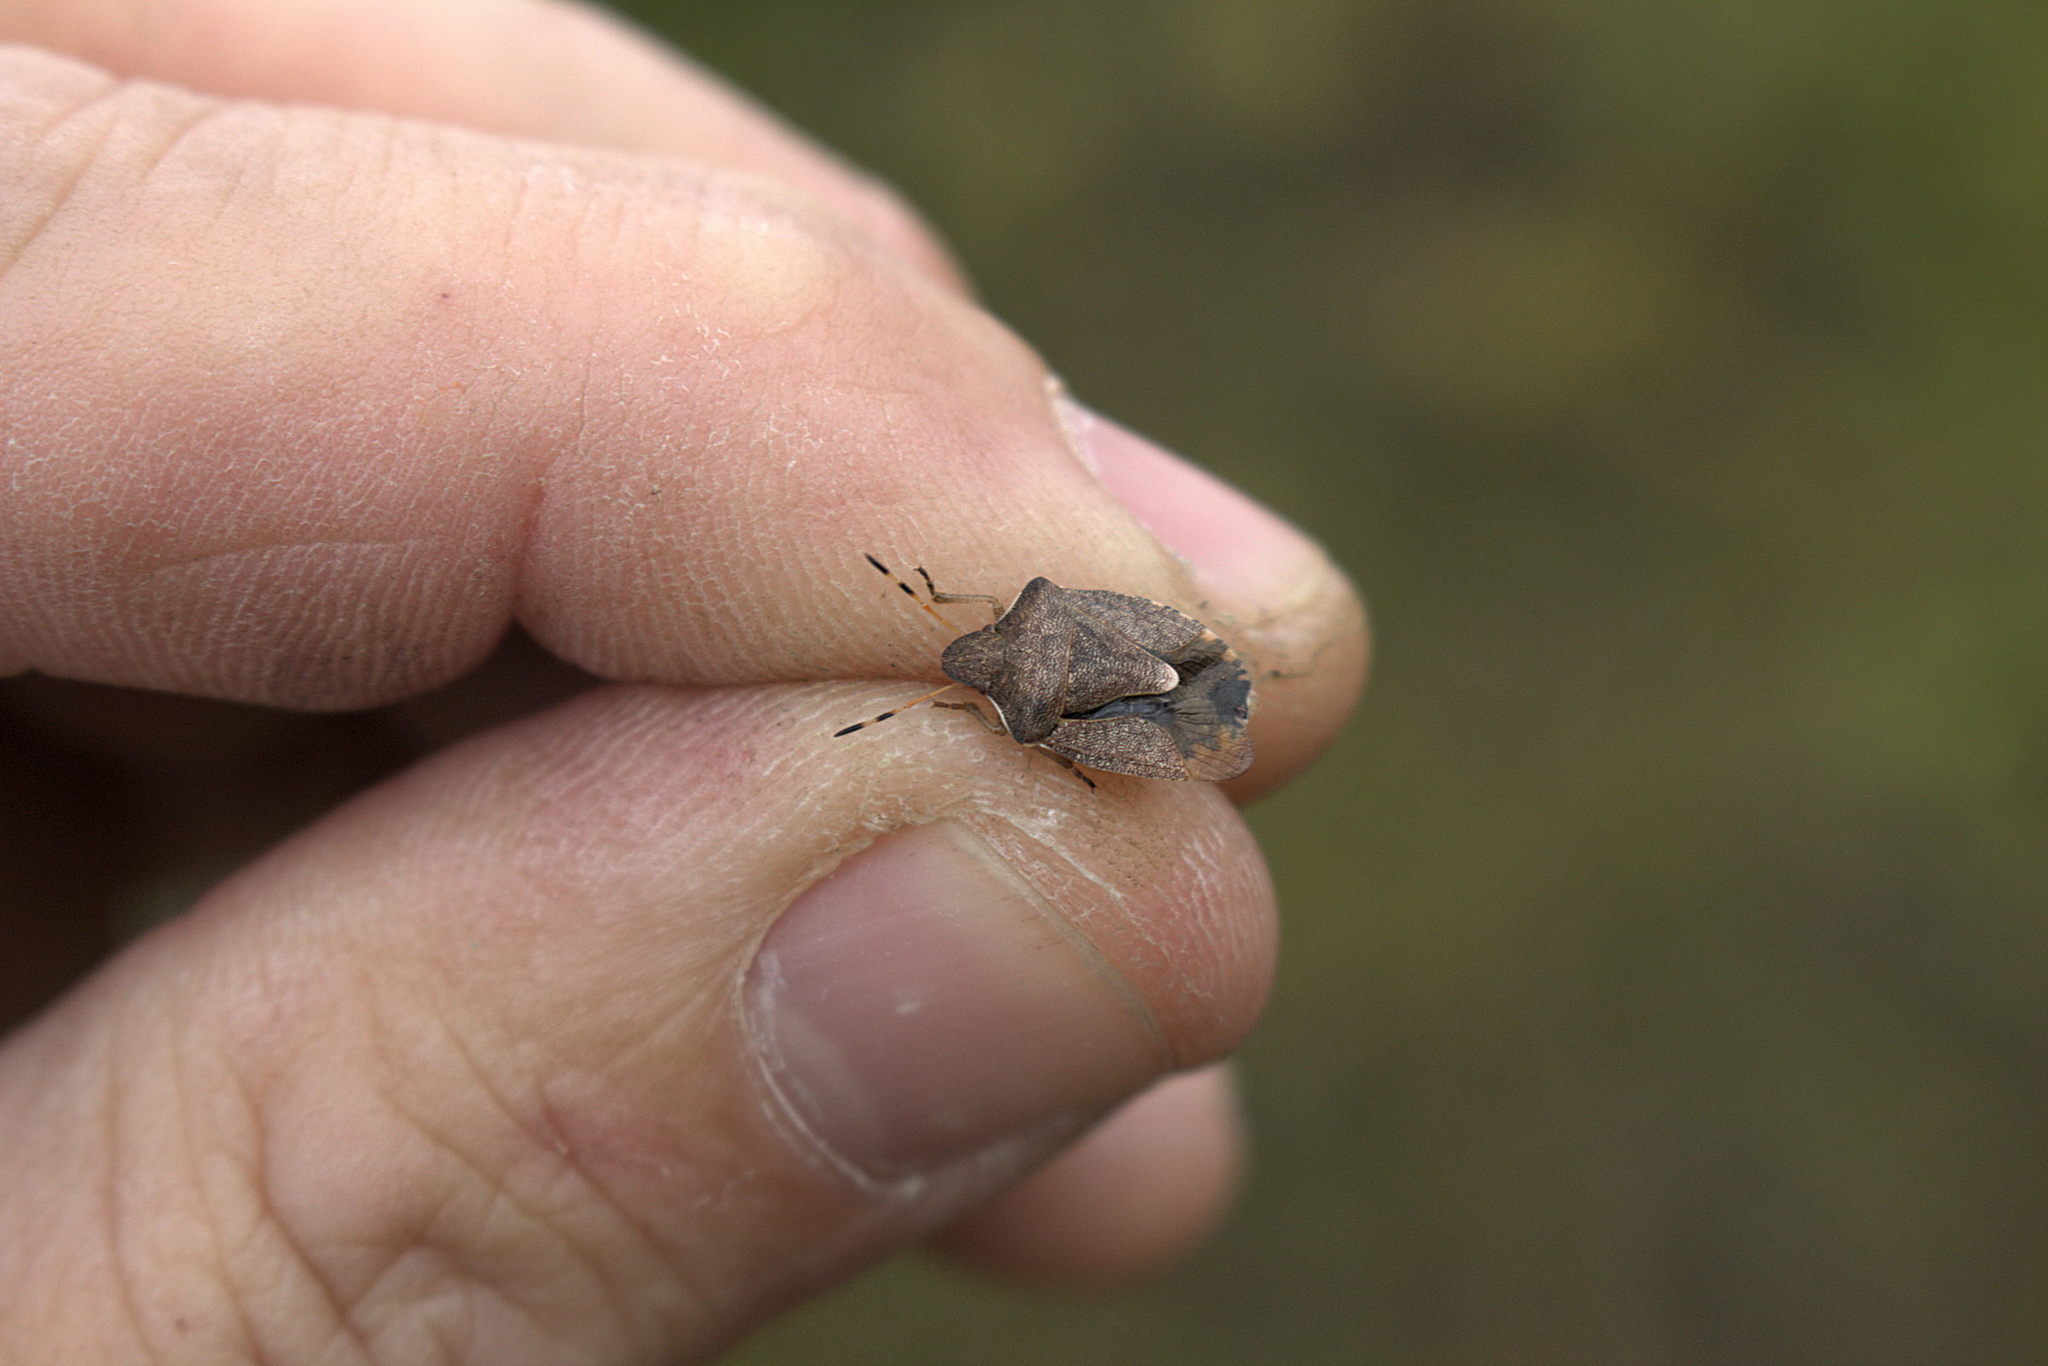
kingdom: Animalia
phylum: Arthropoda
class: Insecta
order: Hemiptera
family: Pentatomidae
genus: Holcostethus
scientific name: Holcostethus strictus
